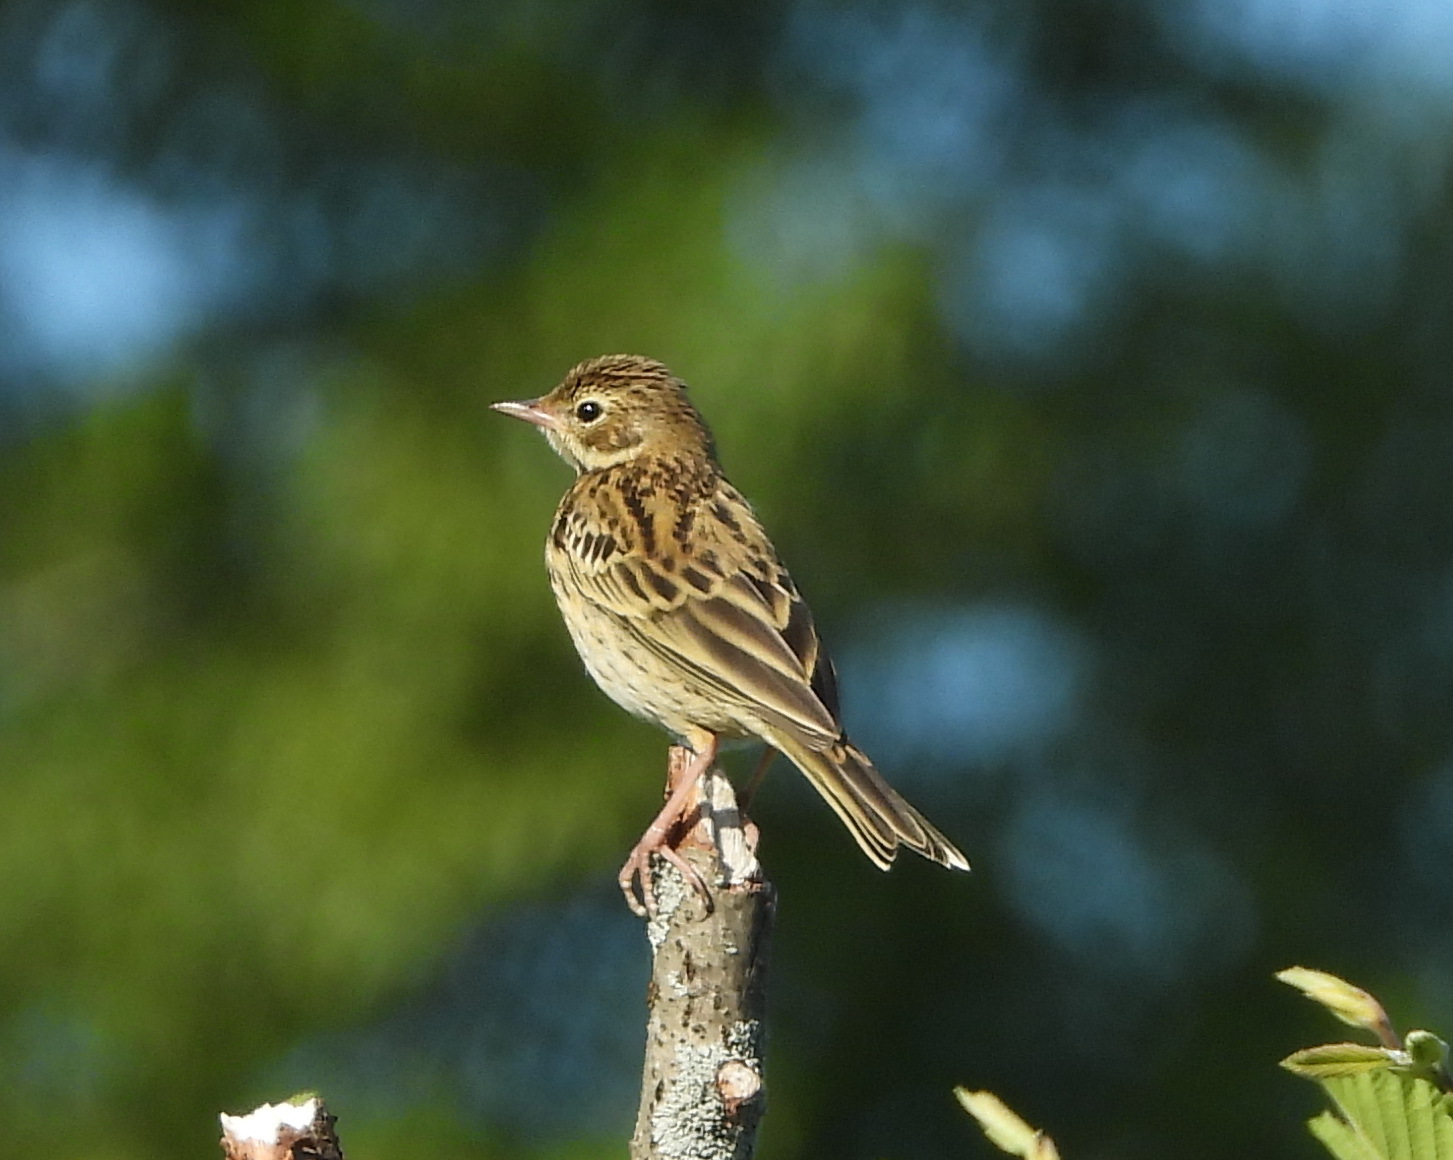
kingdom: Animalia
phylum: Chordata
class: Aves
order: Passeriformes
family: Motacillidae
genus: Anthus
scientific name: Anthus trivialis
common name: Tree pipit
